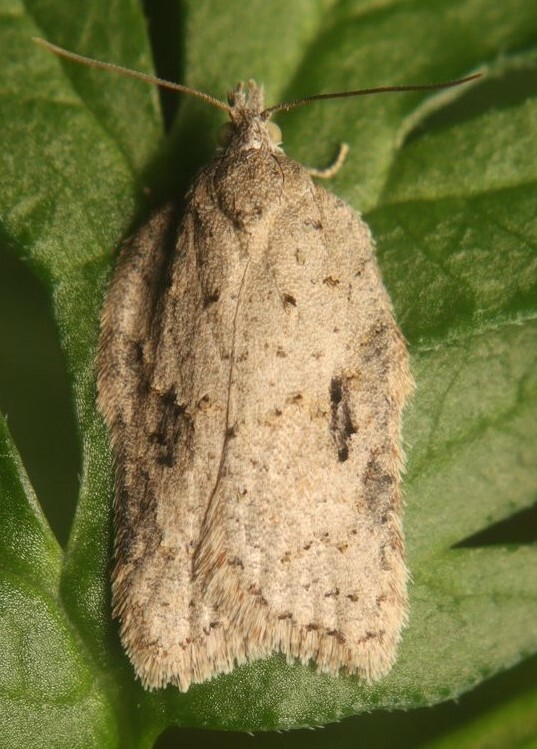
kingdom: Animalia
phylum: Arthropoda
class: Insecta
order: Lepidoptera
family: Tortricidae
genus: Acleris
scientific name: Acleris logiana
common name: Grey birch button
